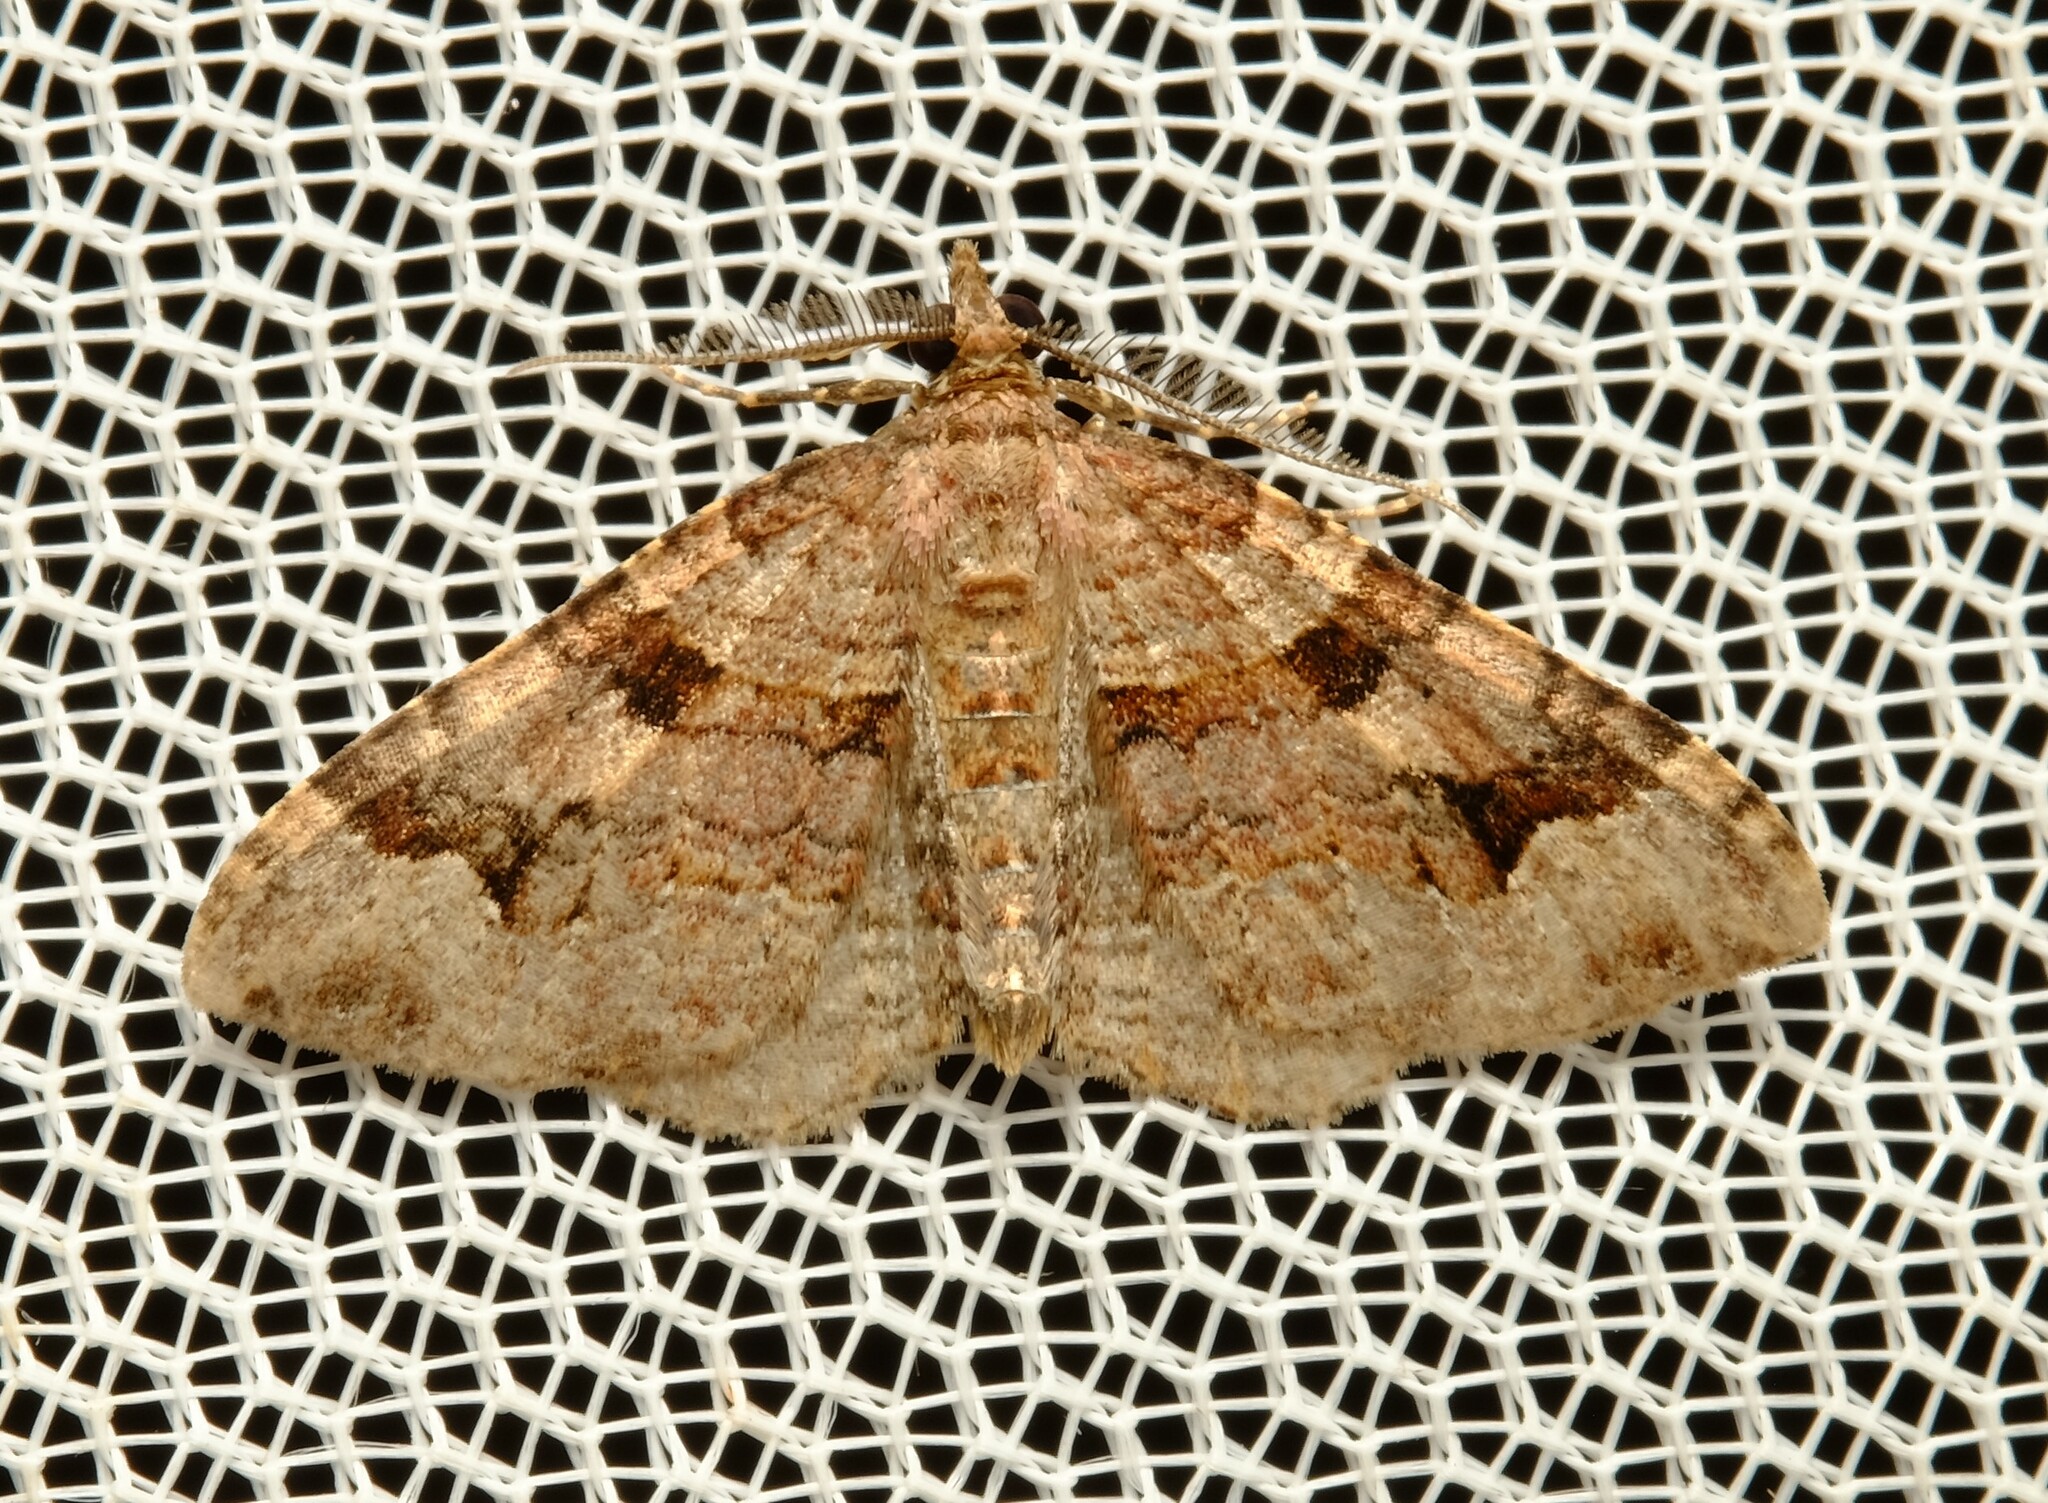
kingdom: Animalia
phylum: Arthropoda
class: Insecta
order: Lepidoptera
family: Geometridae
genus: Epyaxa
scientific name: Epyaxa subidaria
